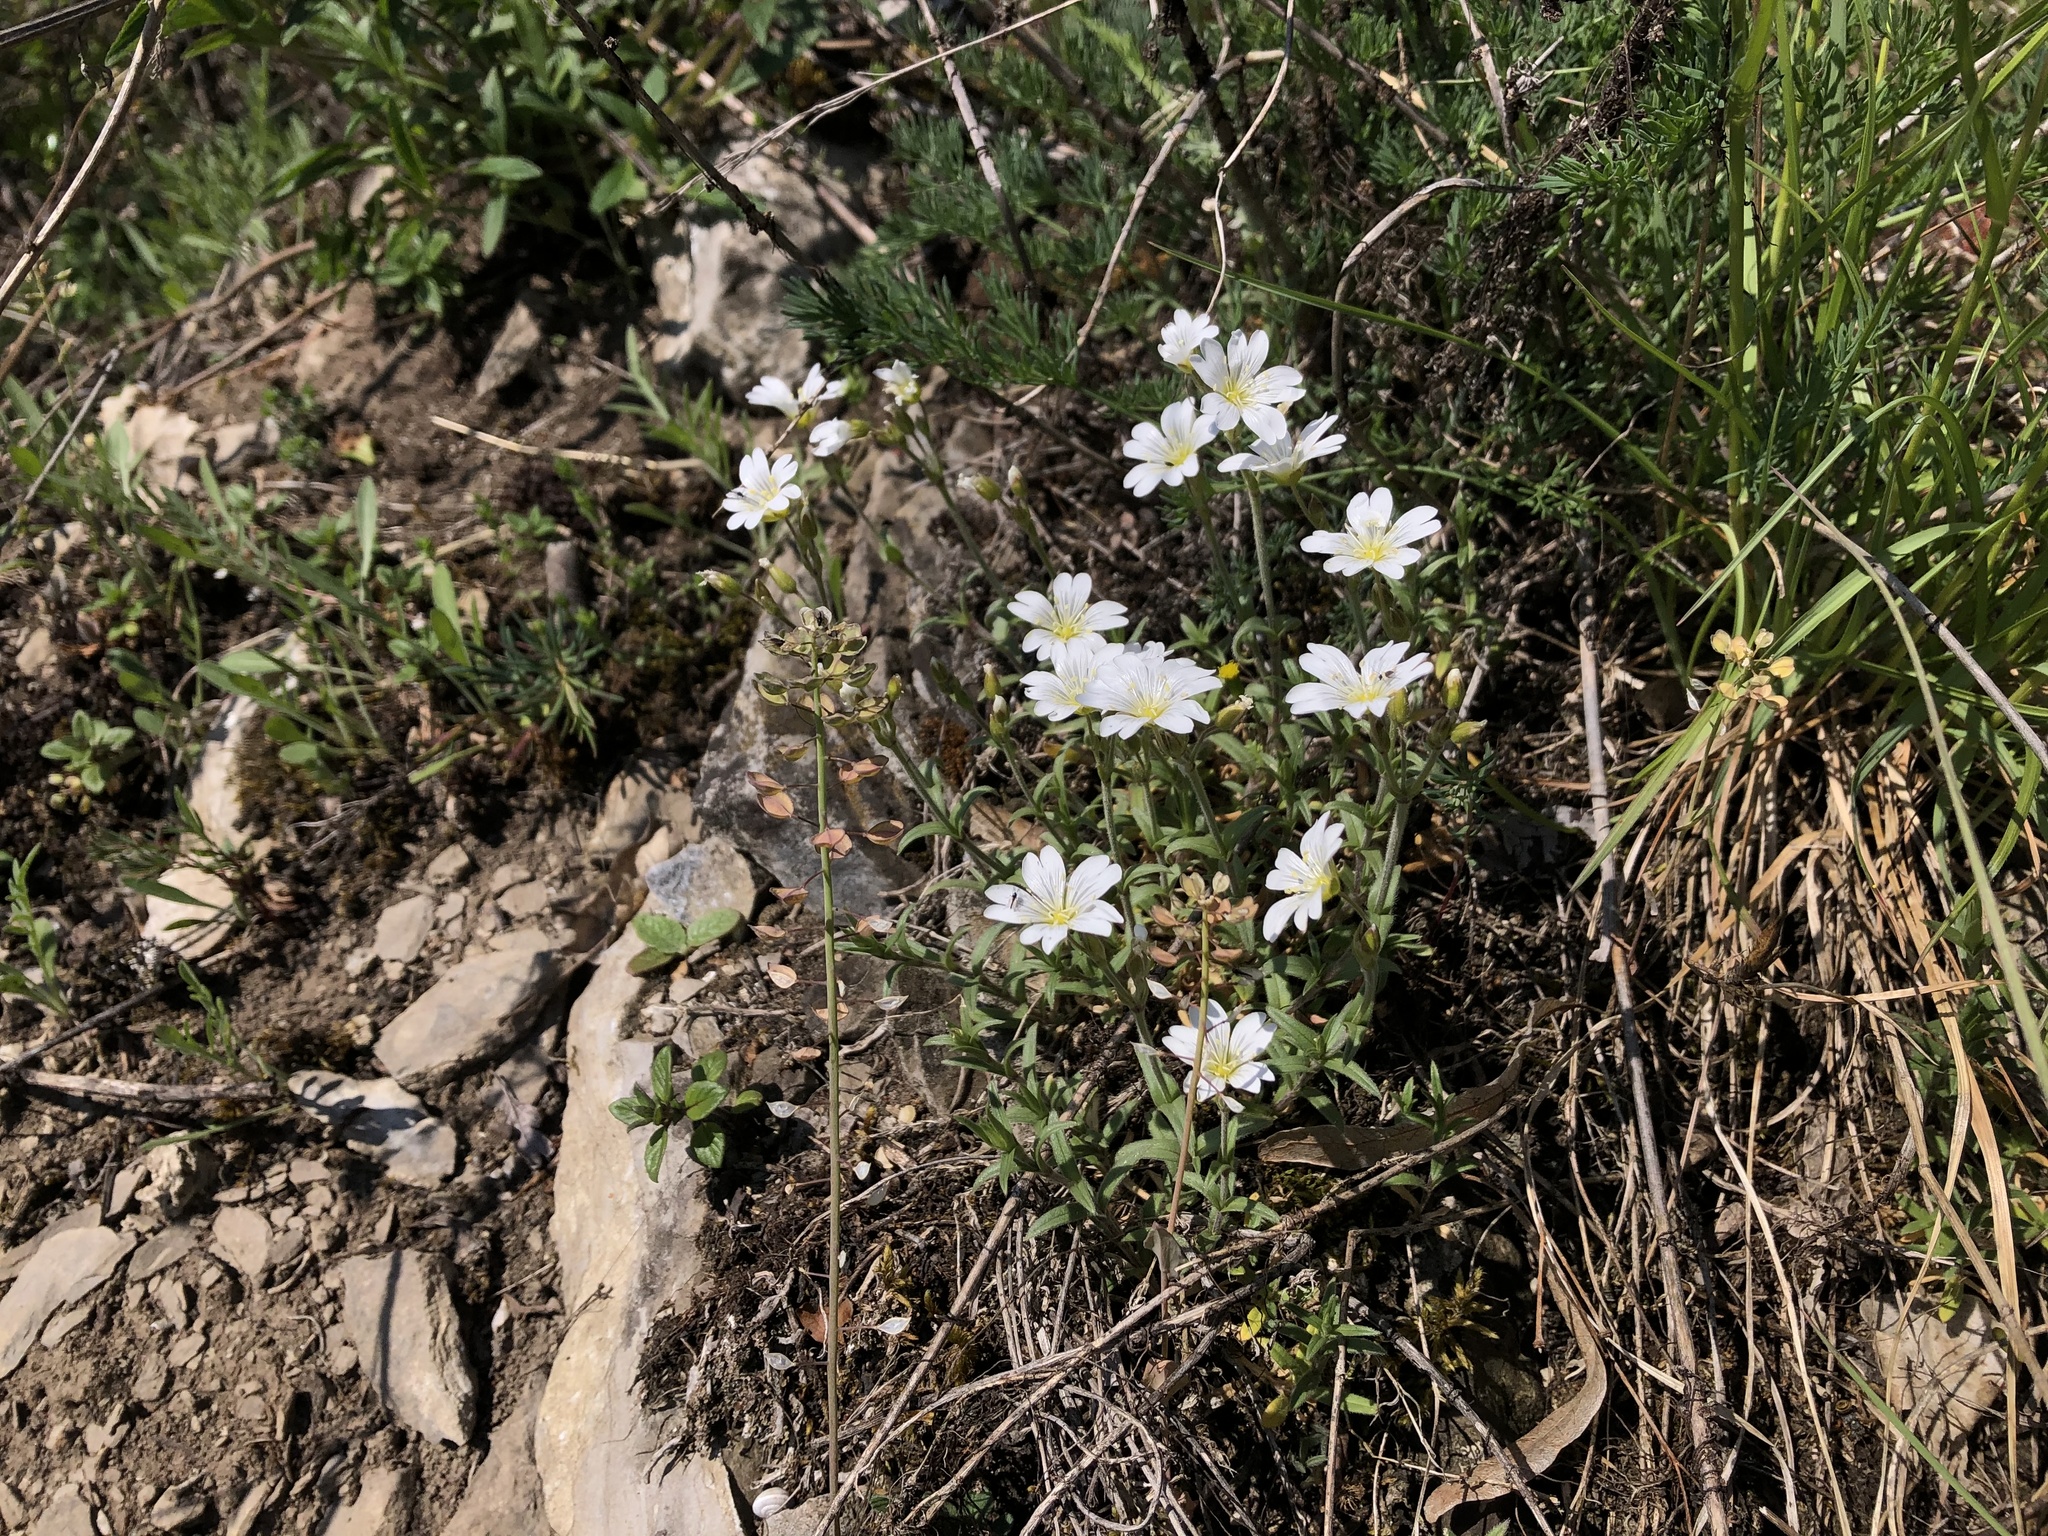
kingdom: Plantae
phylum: Tracheophyta
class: Magnoliopsida
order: Caryophyllales
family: Caryophyllaceae
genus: Cerastium
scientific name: Cerastium arvense
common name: Field mouse-ear
